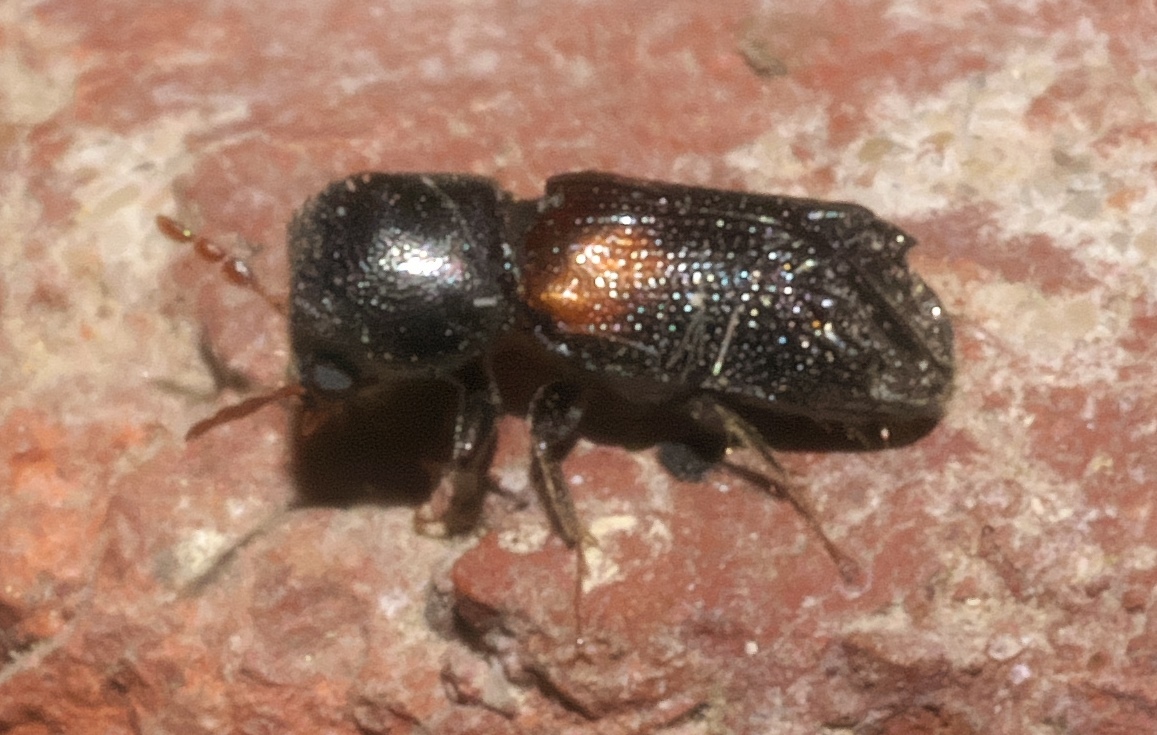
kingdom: Animalia
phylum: Arthropoda
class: Insecta
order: Coleoptera
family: Bostrichidae
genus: Xylobiops
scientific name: Xylobiops basilaris
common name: Red-shouldered bostrichid
